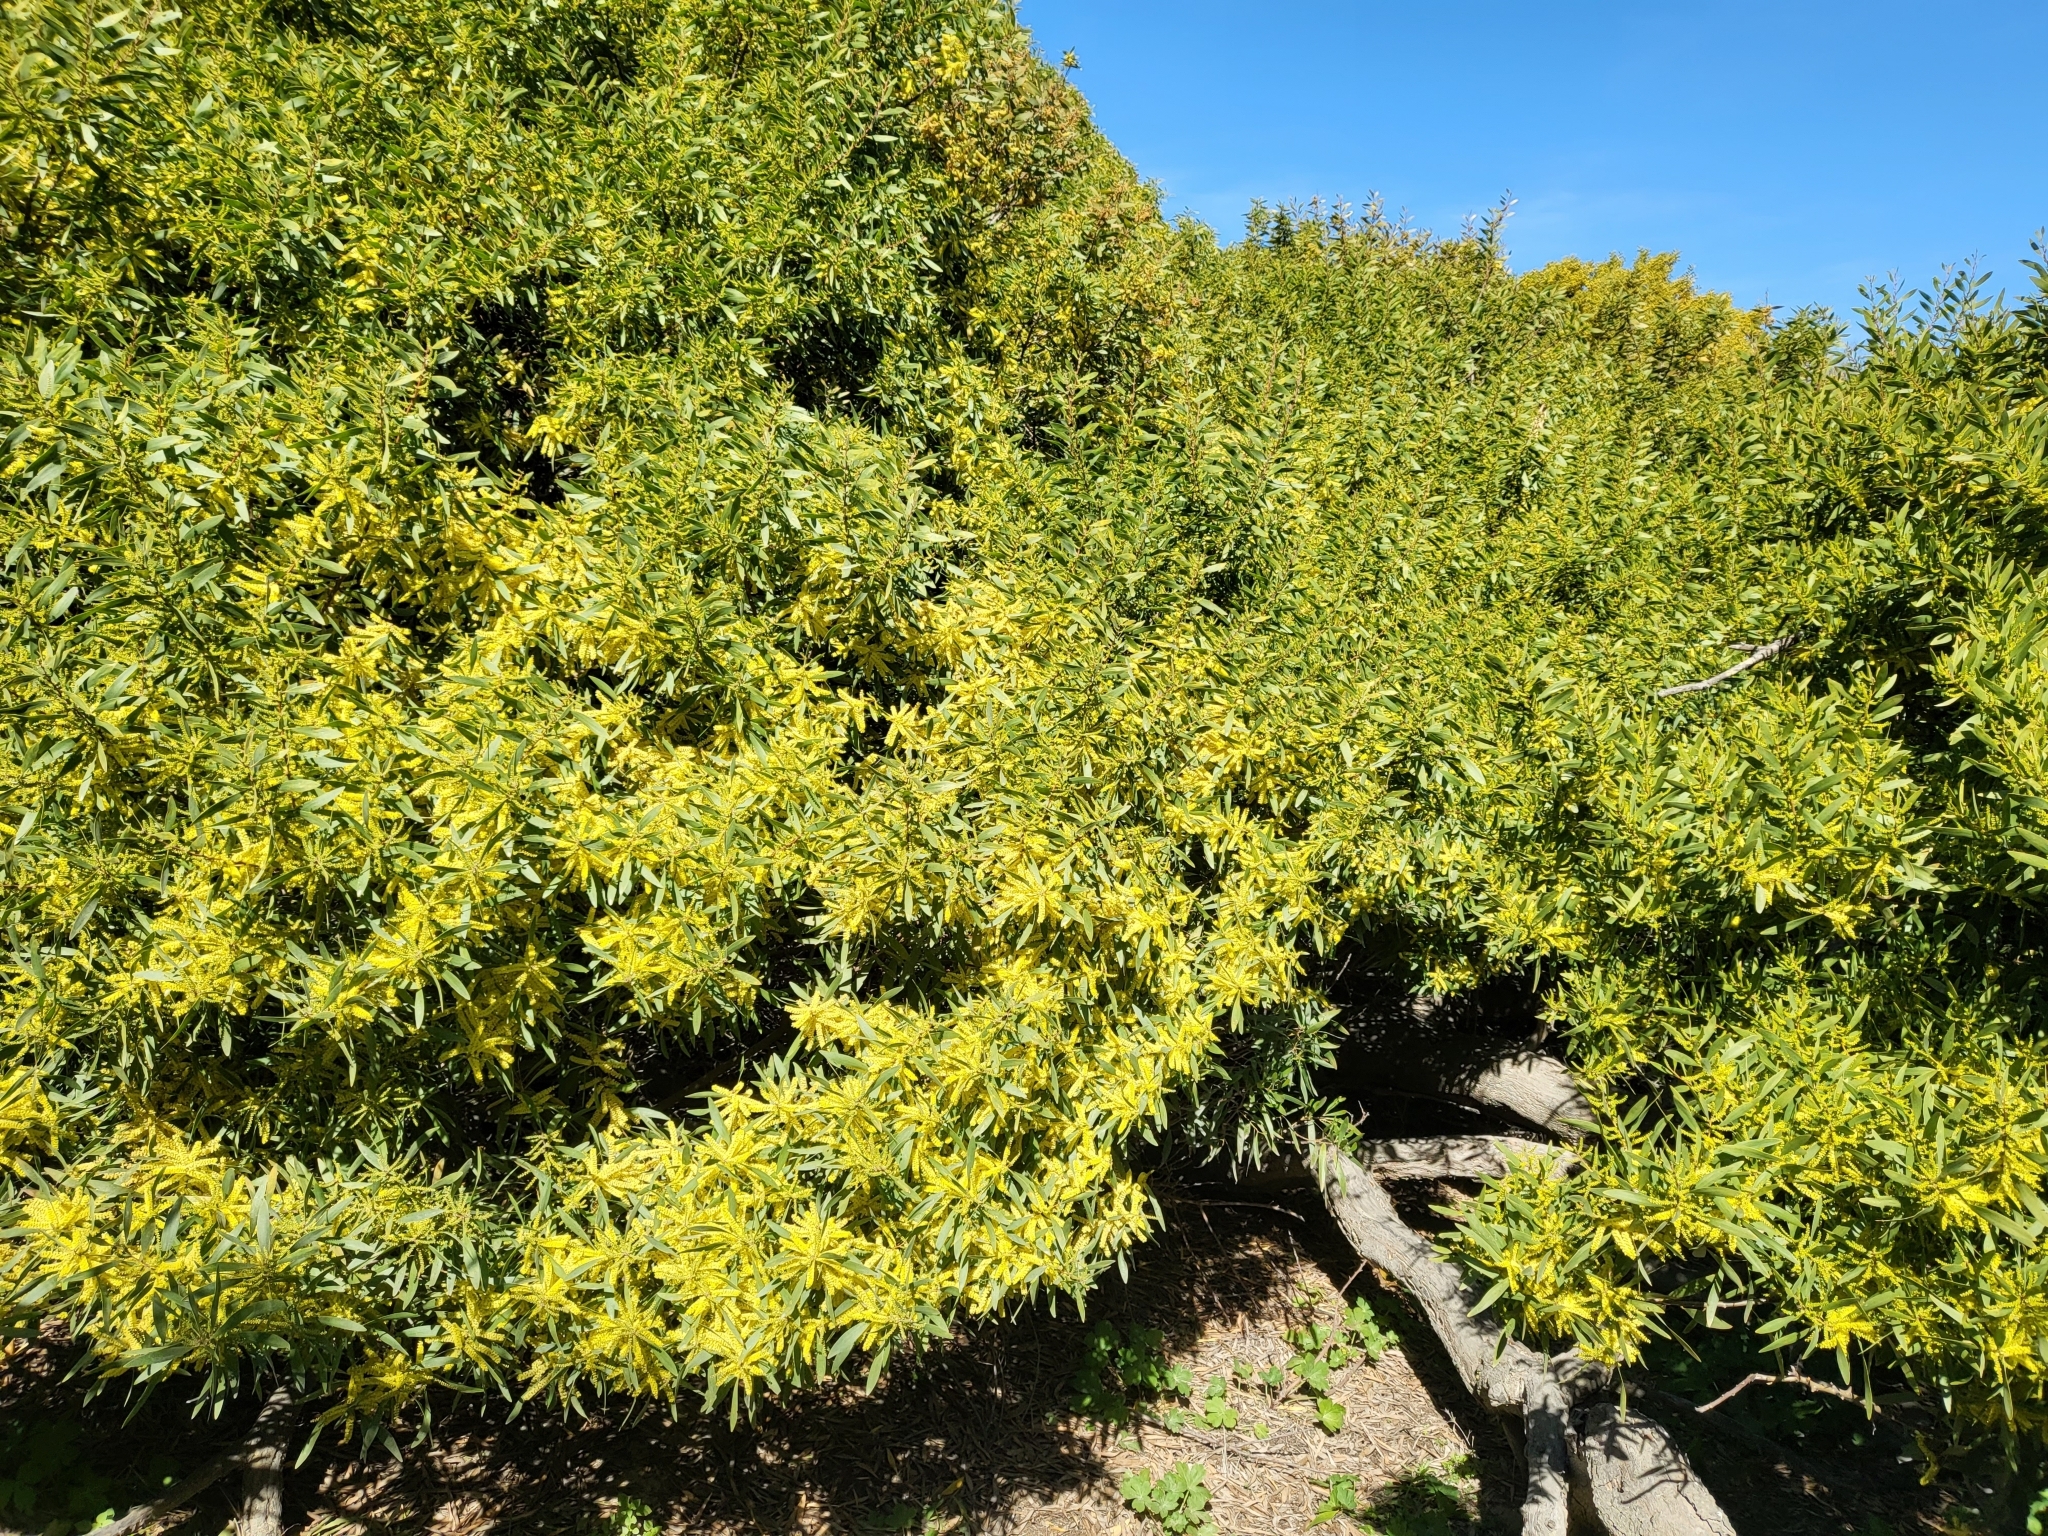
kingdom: Plantae
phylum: Tracheophyta
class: Magnoliopsida
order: Fabales
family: Fabaceae
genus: Acacia
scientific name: Acacia longifolia
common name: Sydney golden wattle
